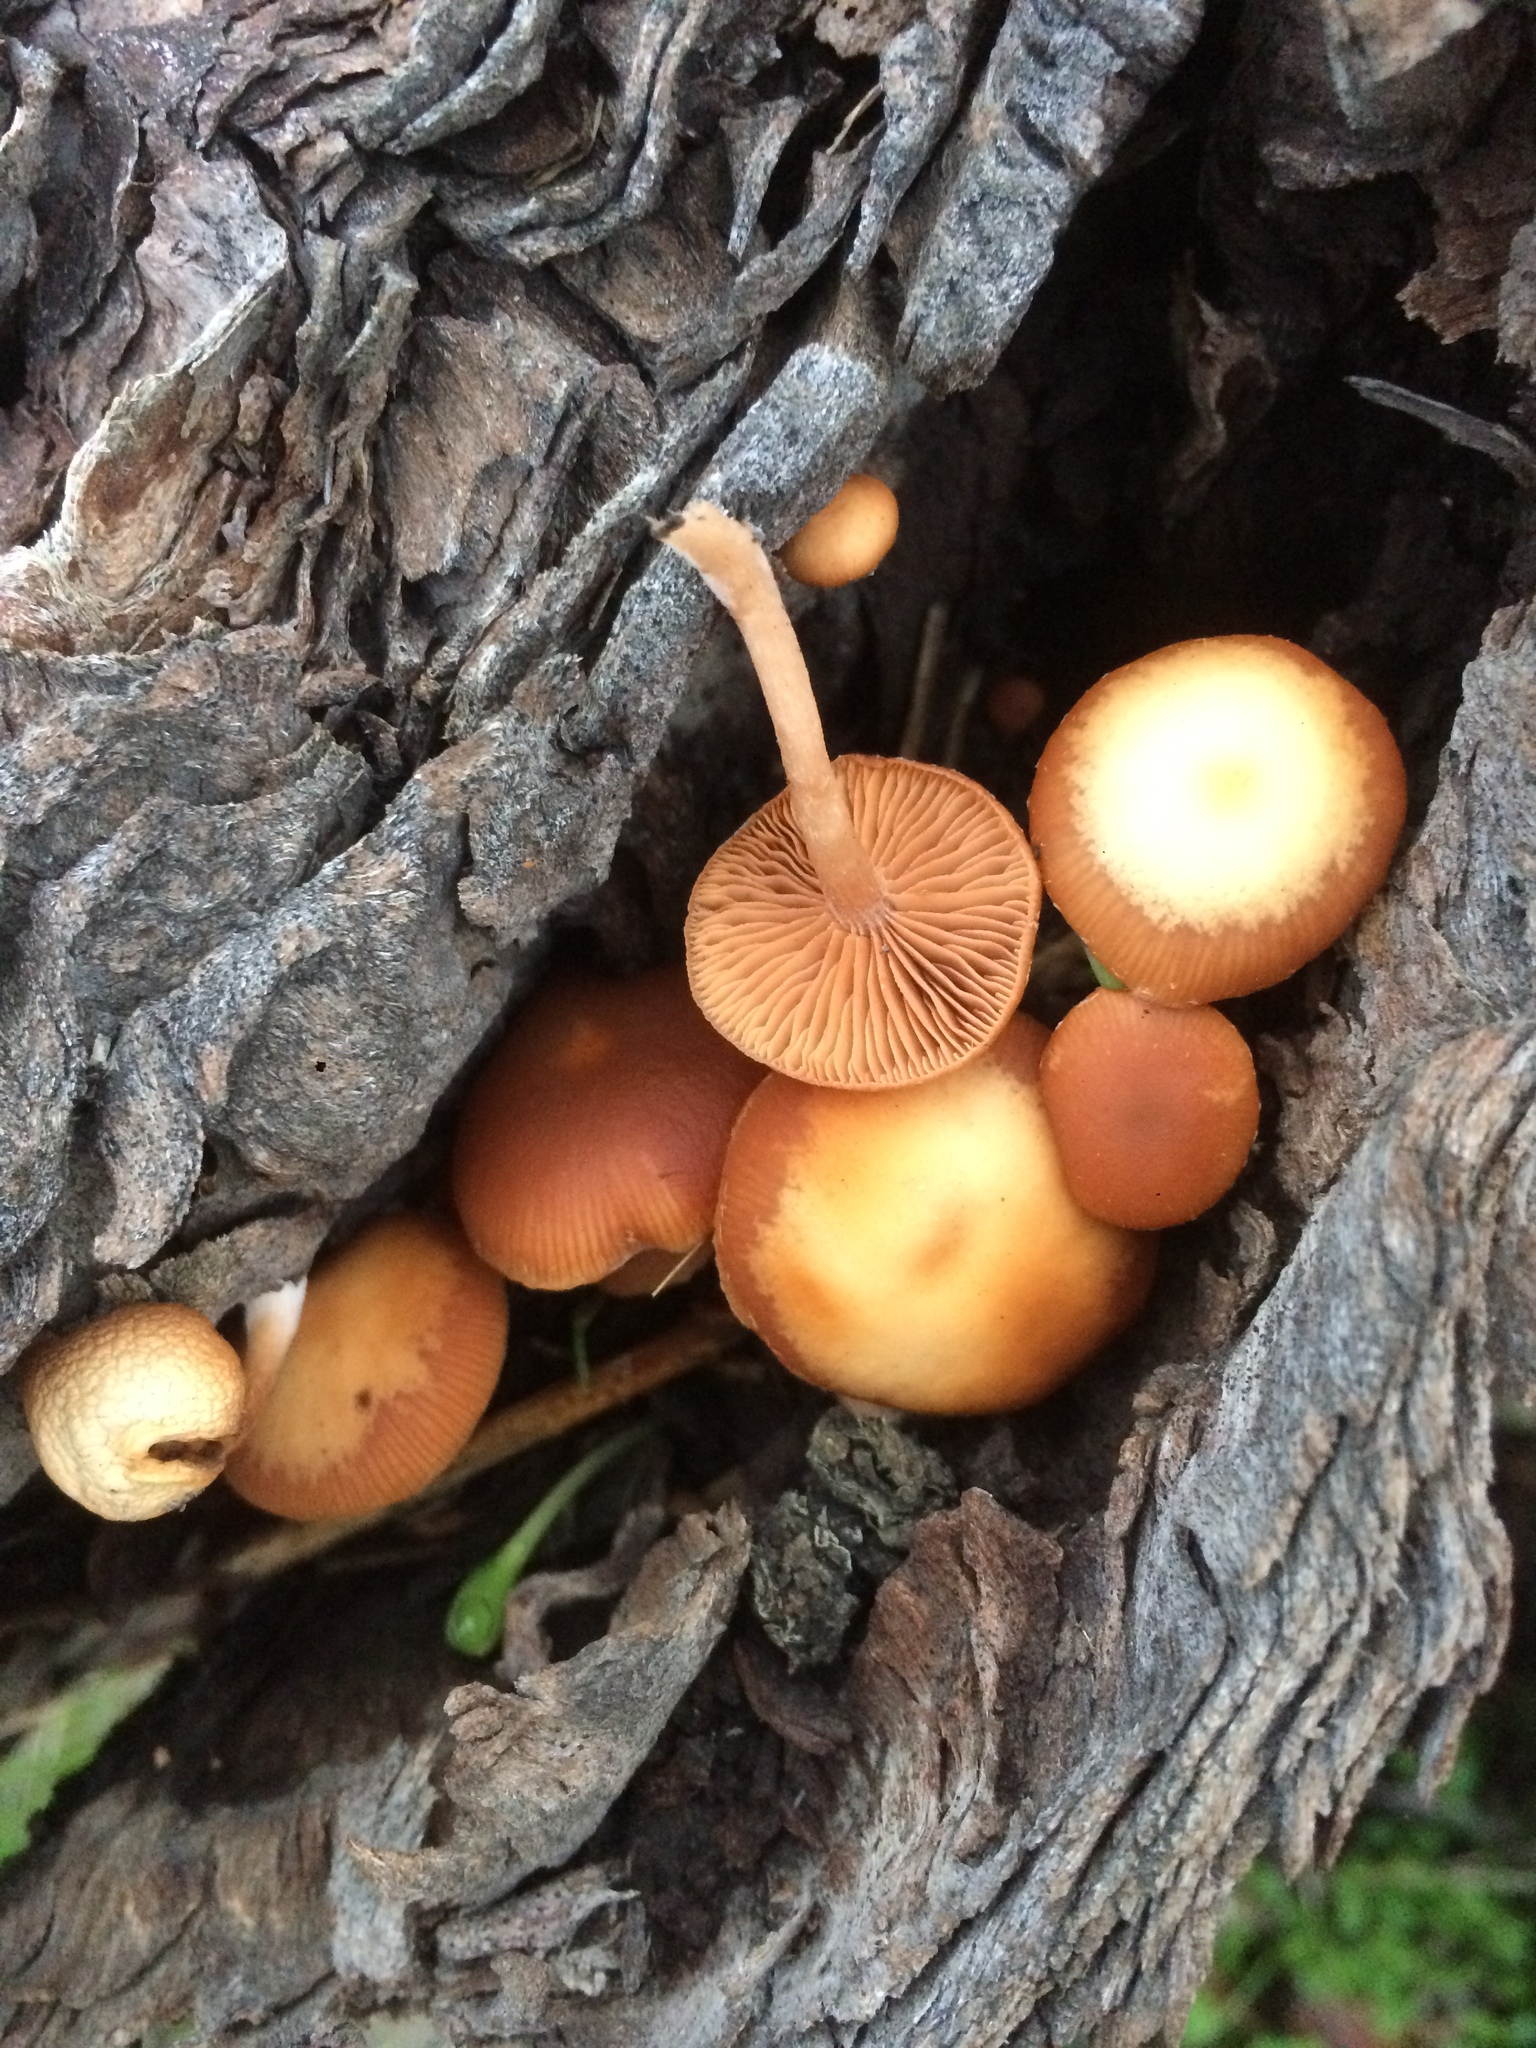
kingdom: Fungi
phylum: Basidiomycota
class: Agaricomycetes
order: Agaricales
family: Tubariaceae
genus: Tubaria
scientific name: Tubaria furfuracea
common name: Scurfy twiglet
